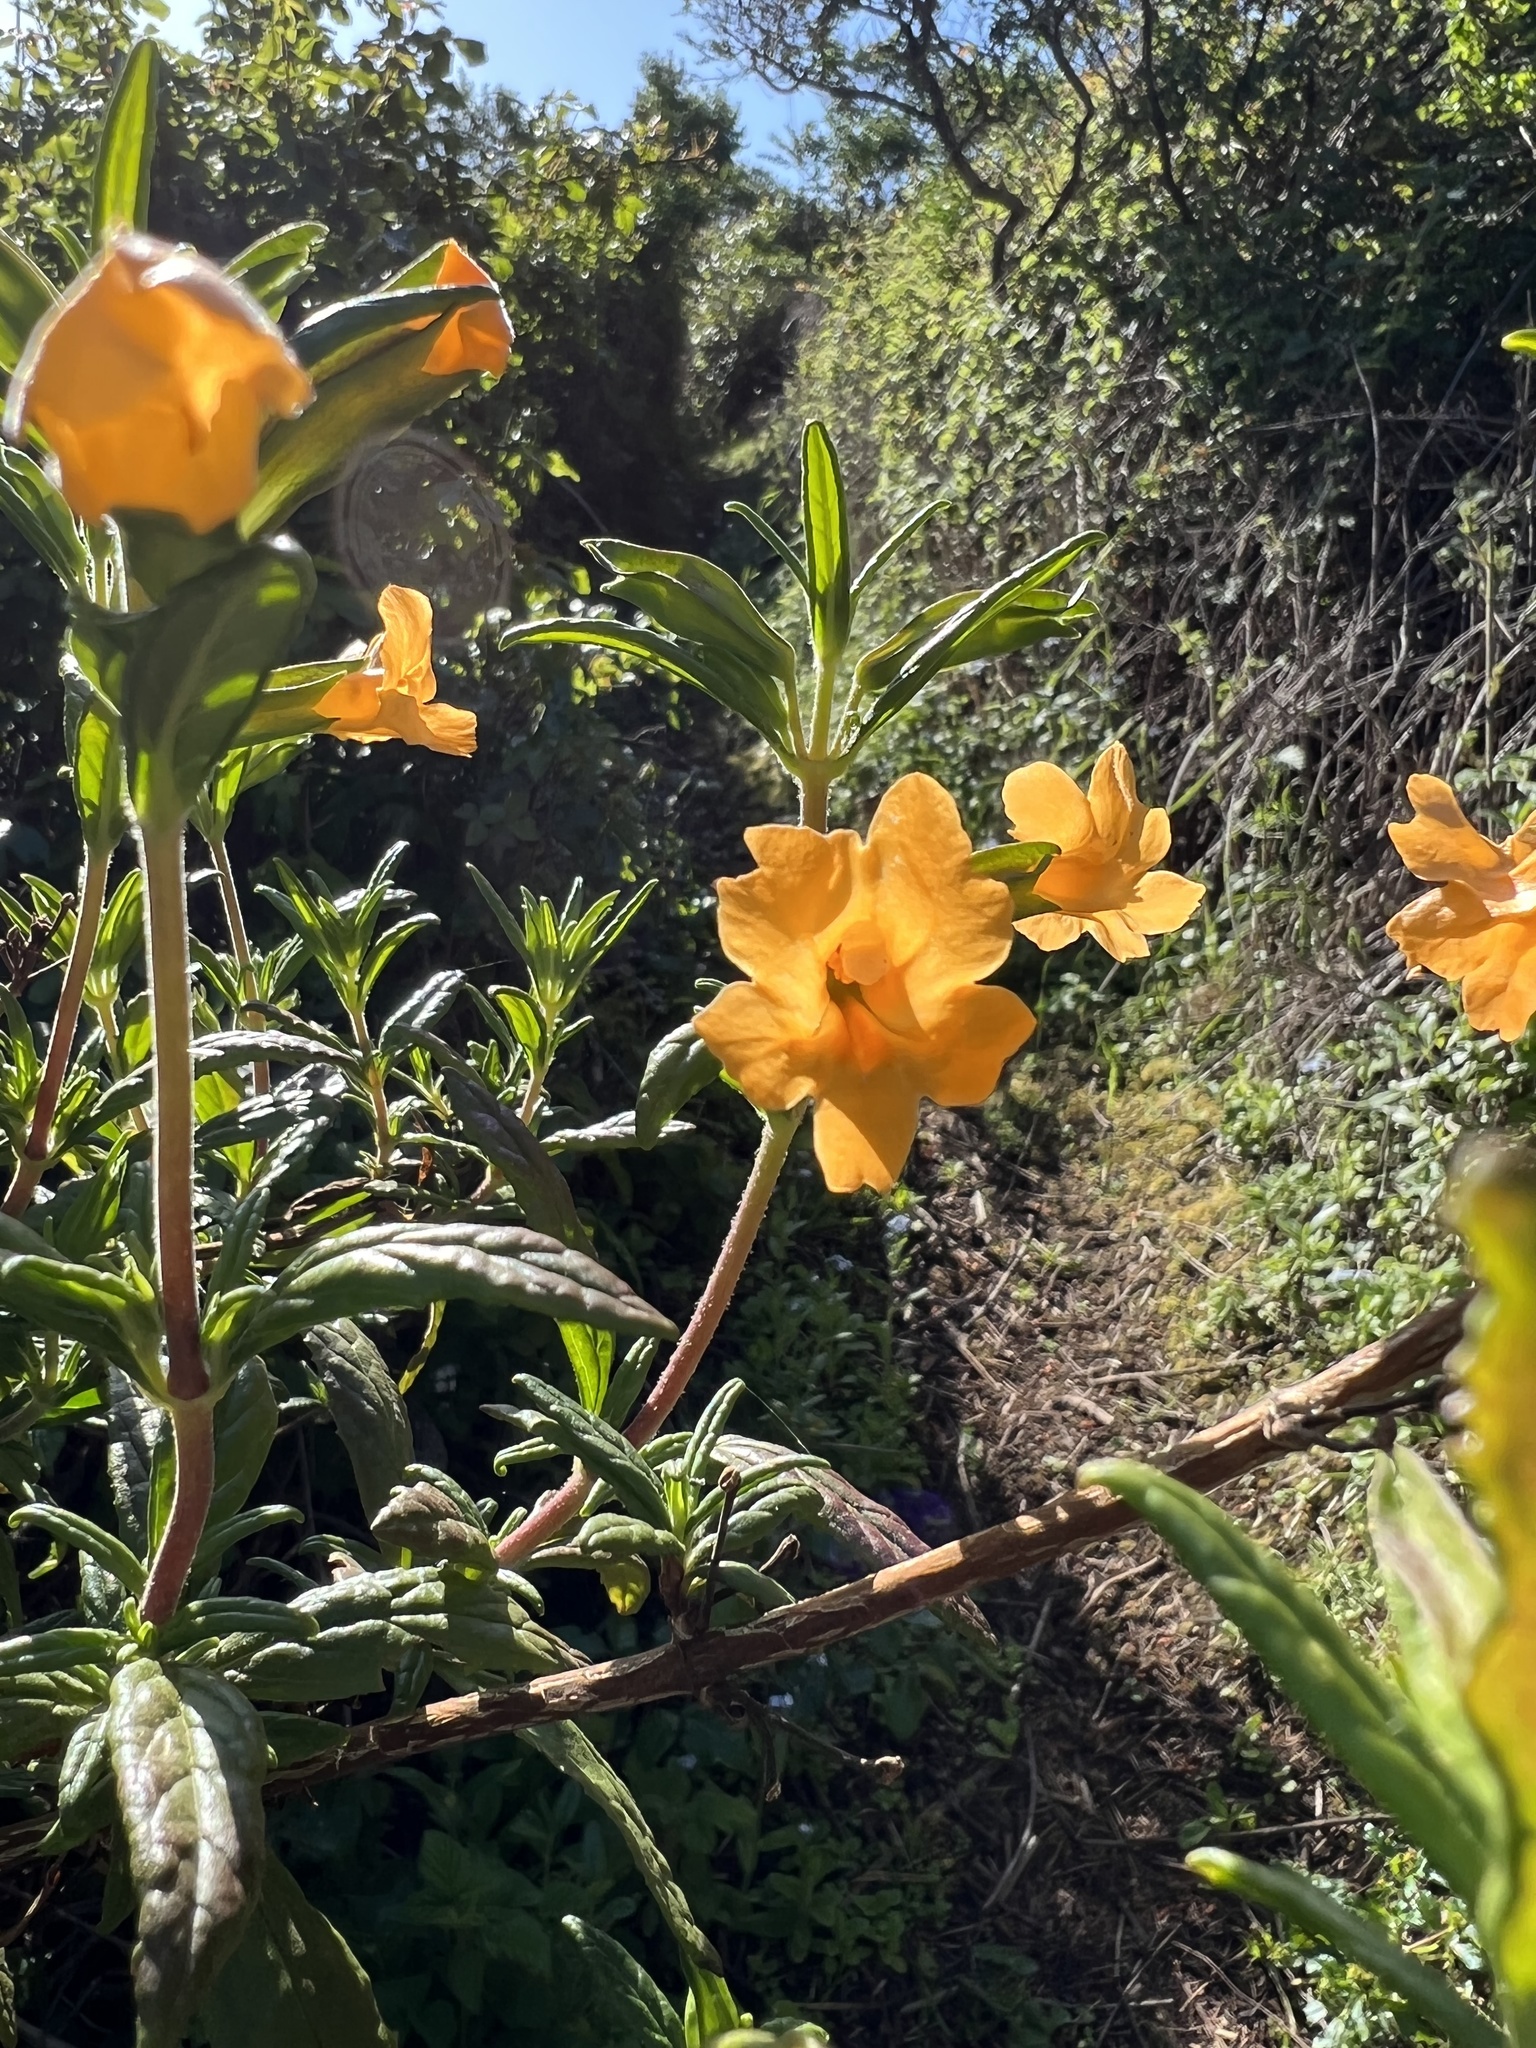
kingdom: Plantae
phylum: Tracheophyta
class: Magnoliopsida
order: Lamiales
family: Phrymaceae
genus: Diplacus
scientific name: Diplacus aurantiacus
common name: Bush monkey-flower
